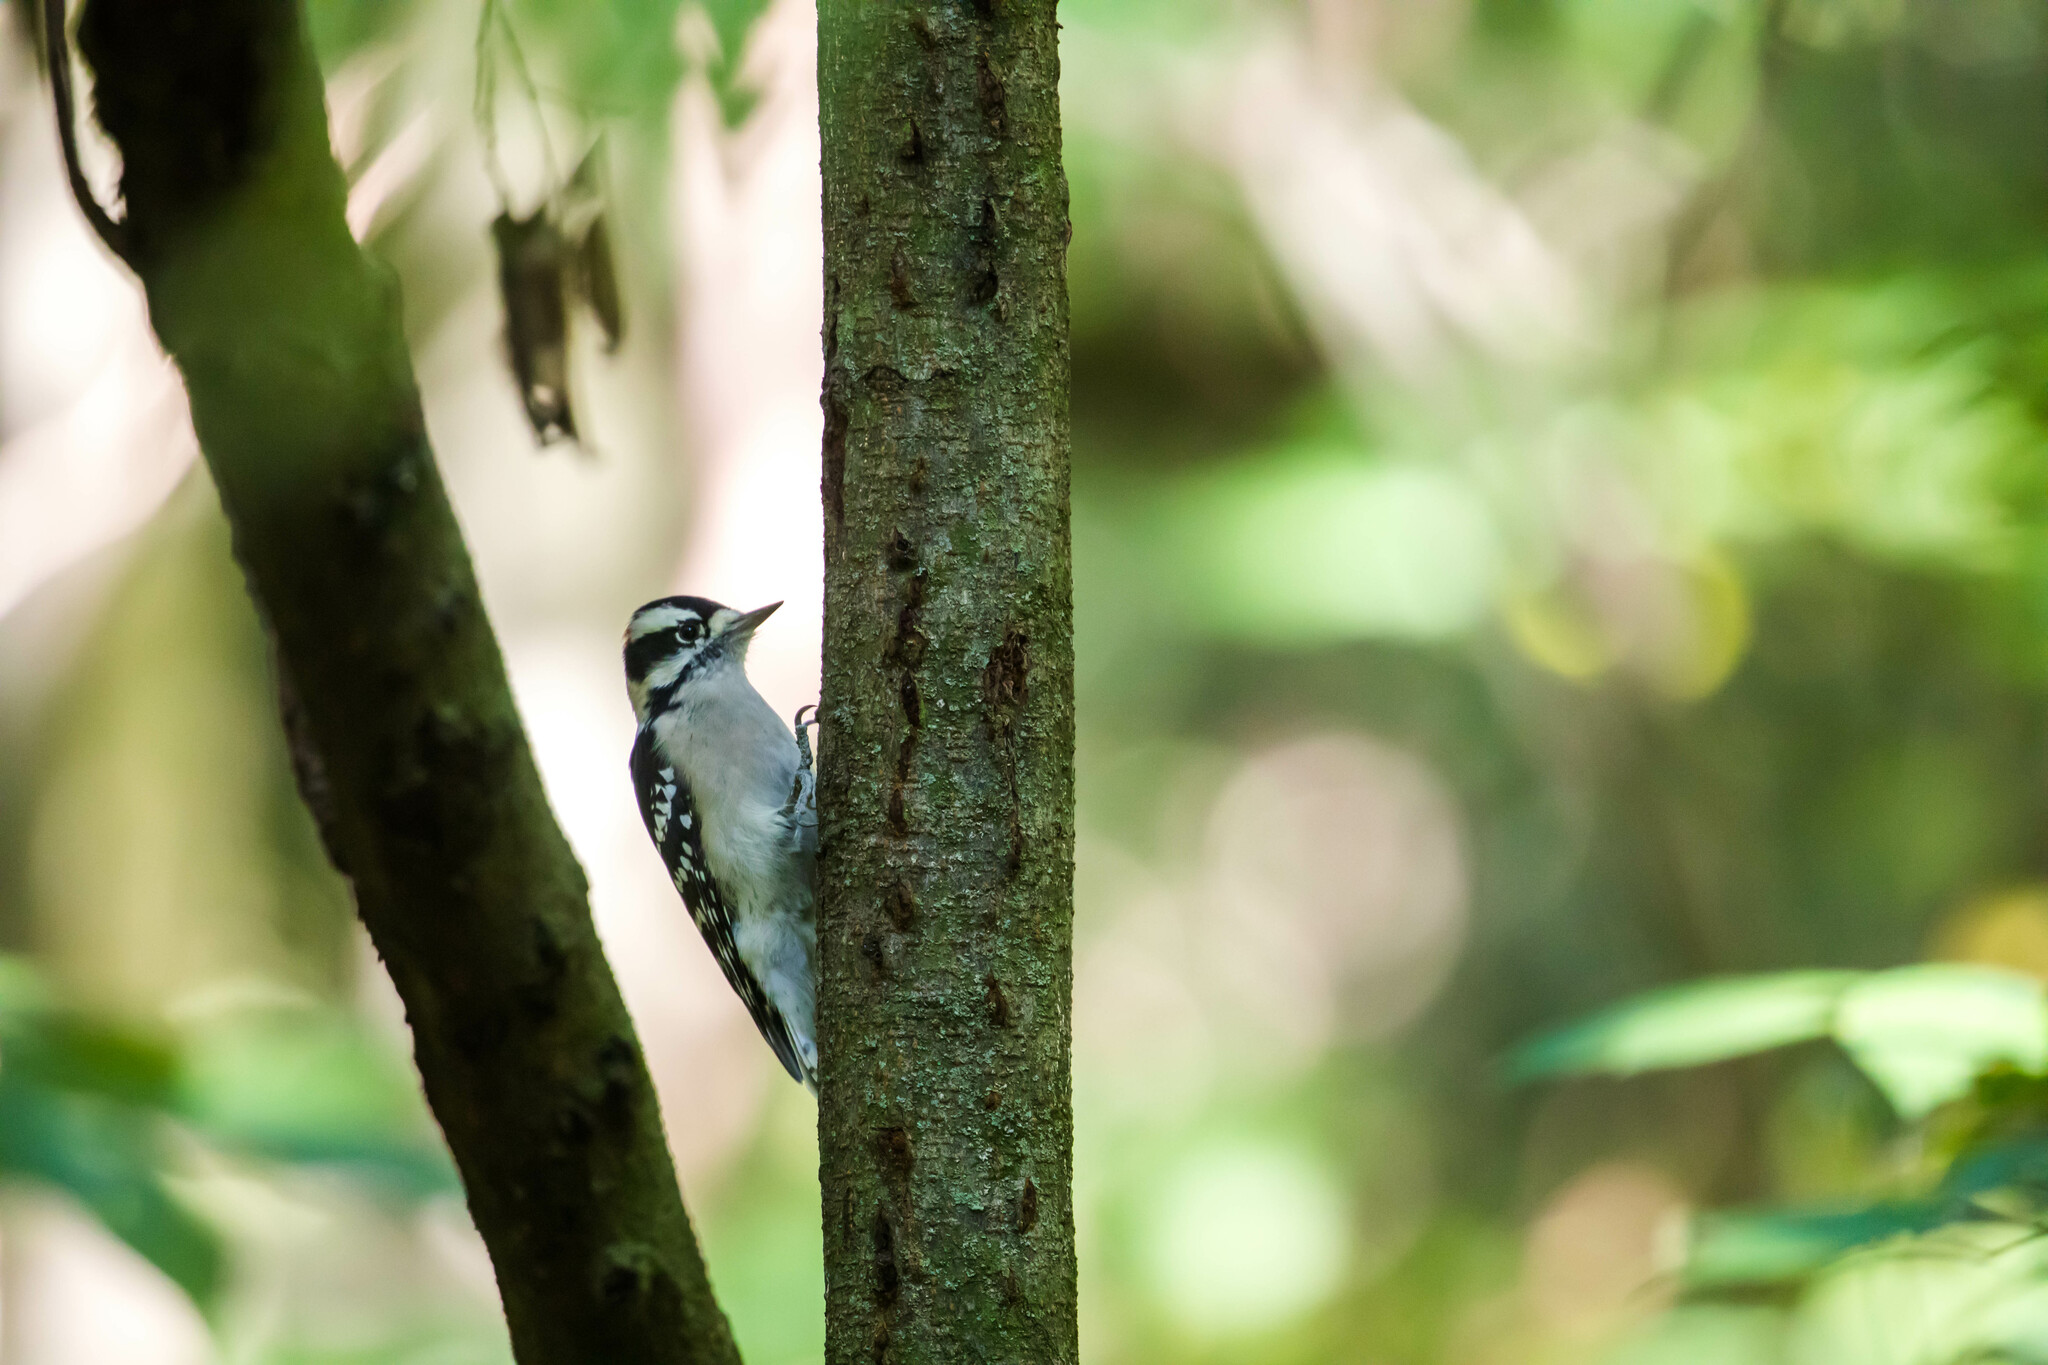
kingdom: Animalia
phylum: Chordata
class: Aves
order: Piciformes
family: Picidae
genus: Dryobates
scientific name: Dryobates pubescens
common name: Downy woodpecker
